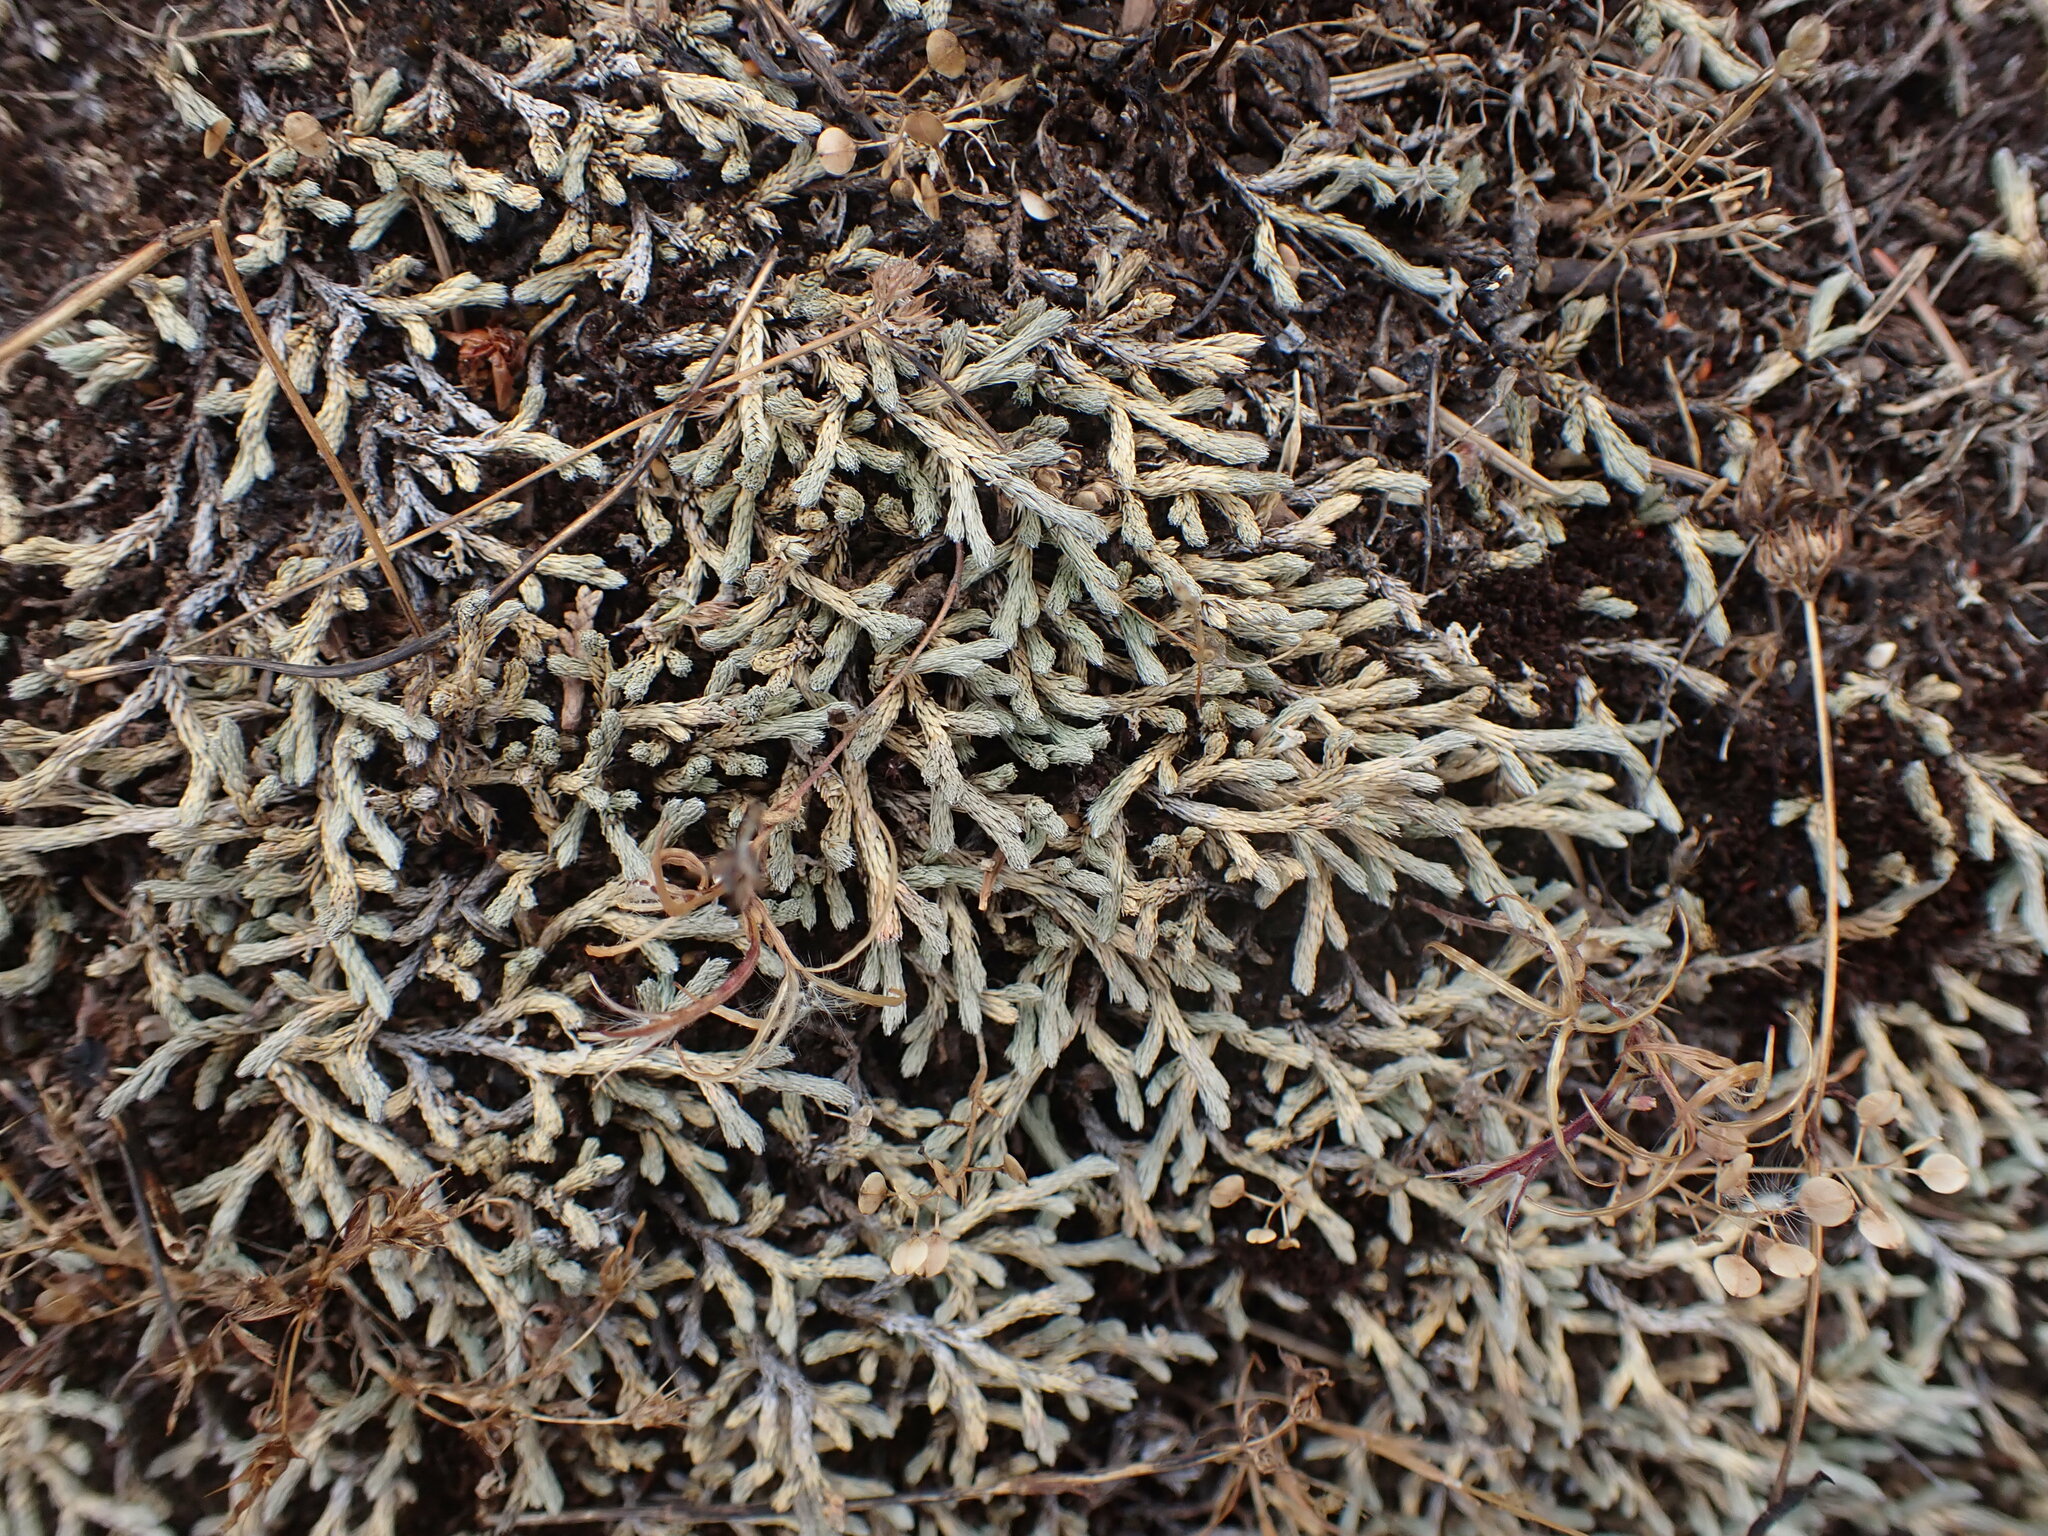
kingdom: Plantae
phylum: Tracheophyta
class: Lycopodiopsida
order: Selaginellales
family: Selaginellaceae
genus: Selaginella
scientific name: Selaginella wallacei
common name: Wallace's selaginella
